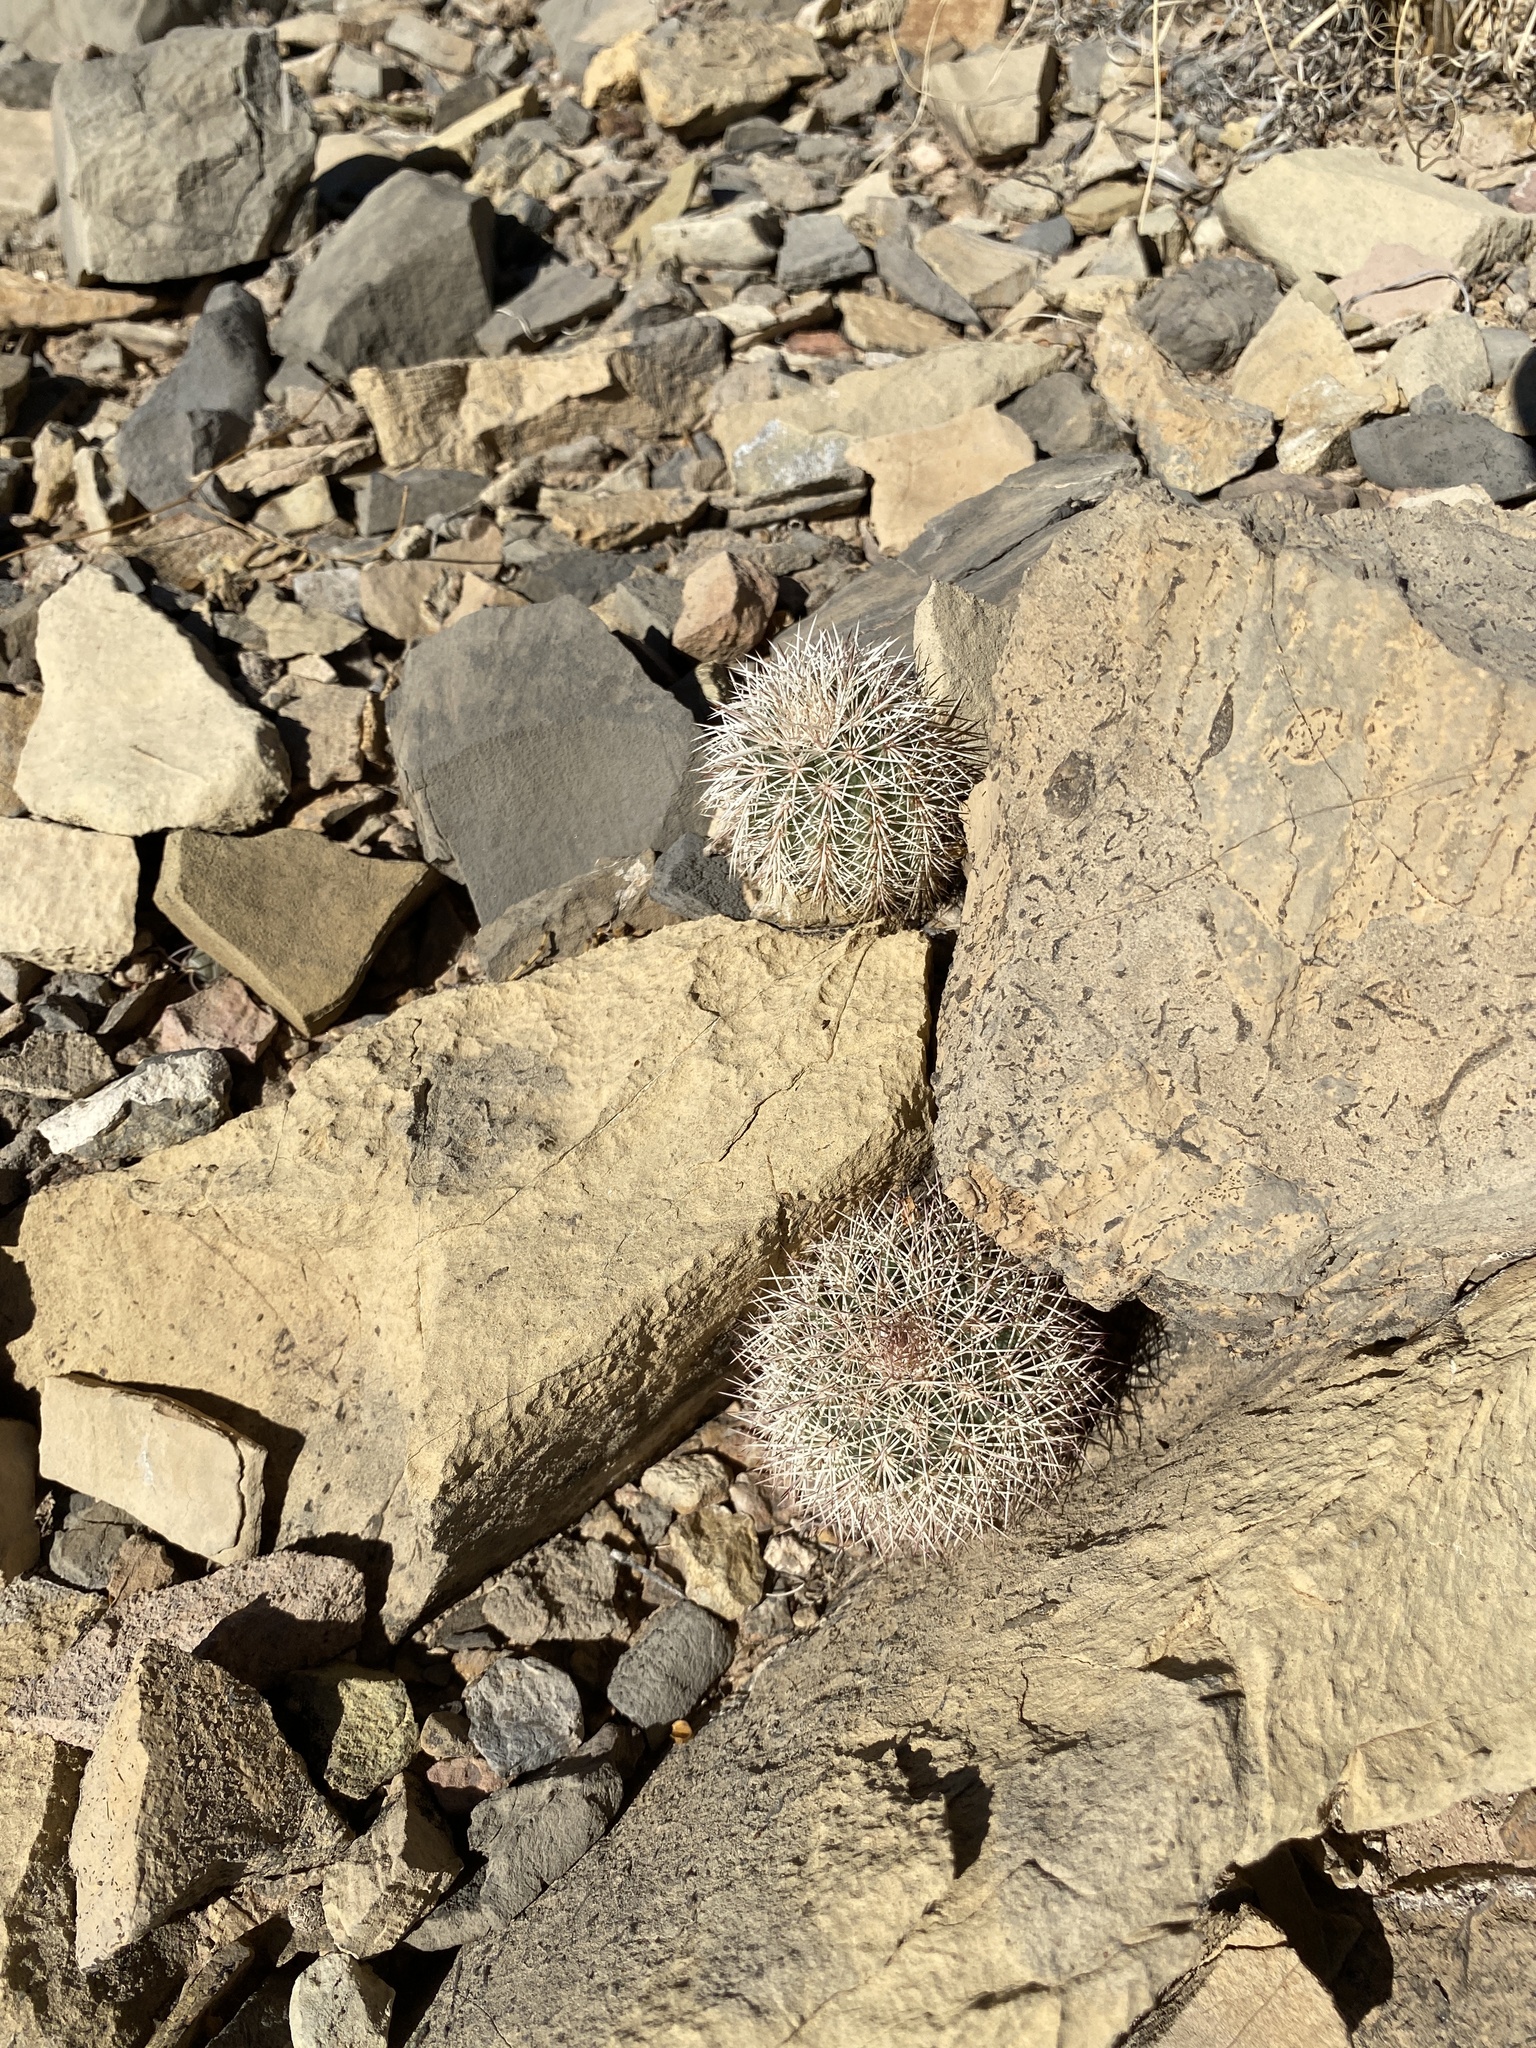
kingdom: Plantae
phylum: Tracheophyta
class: Magnoliopsida
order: Caryophyllales
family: Cactaceae
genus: Echinocereus
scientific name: Echinocereus dasyacanthus
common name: Spiny hedgehog cactus
